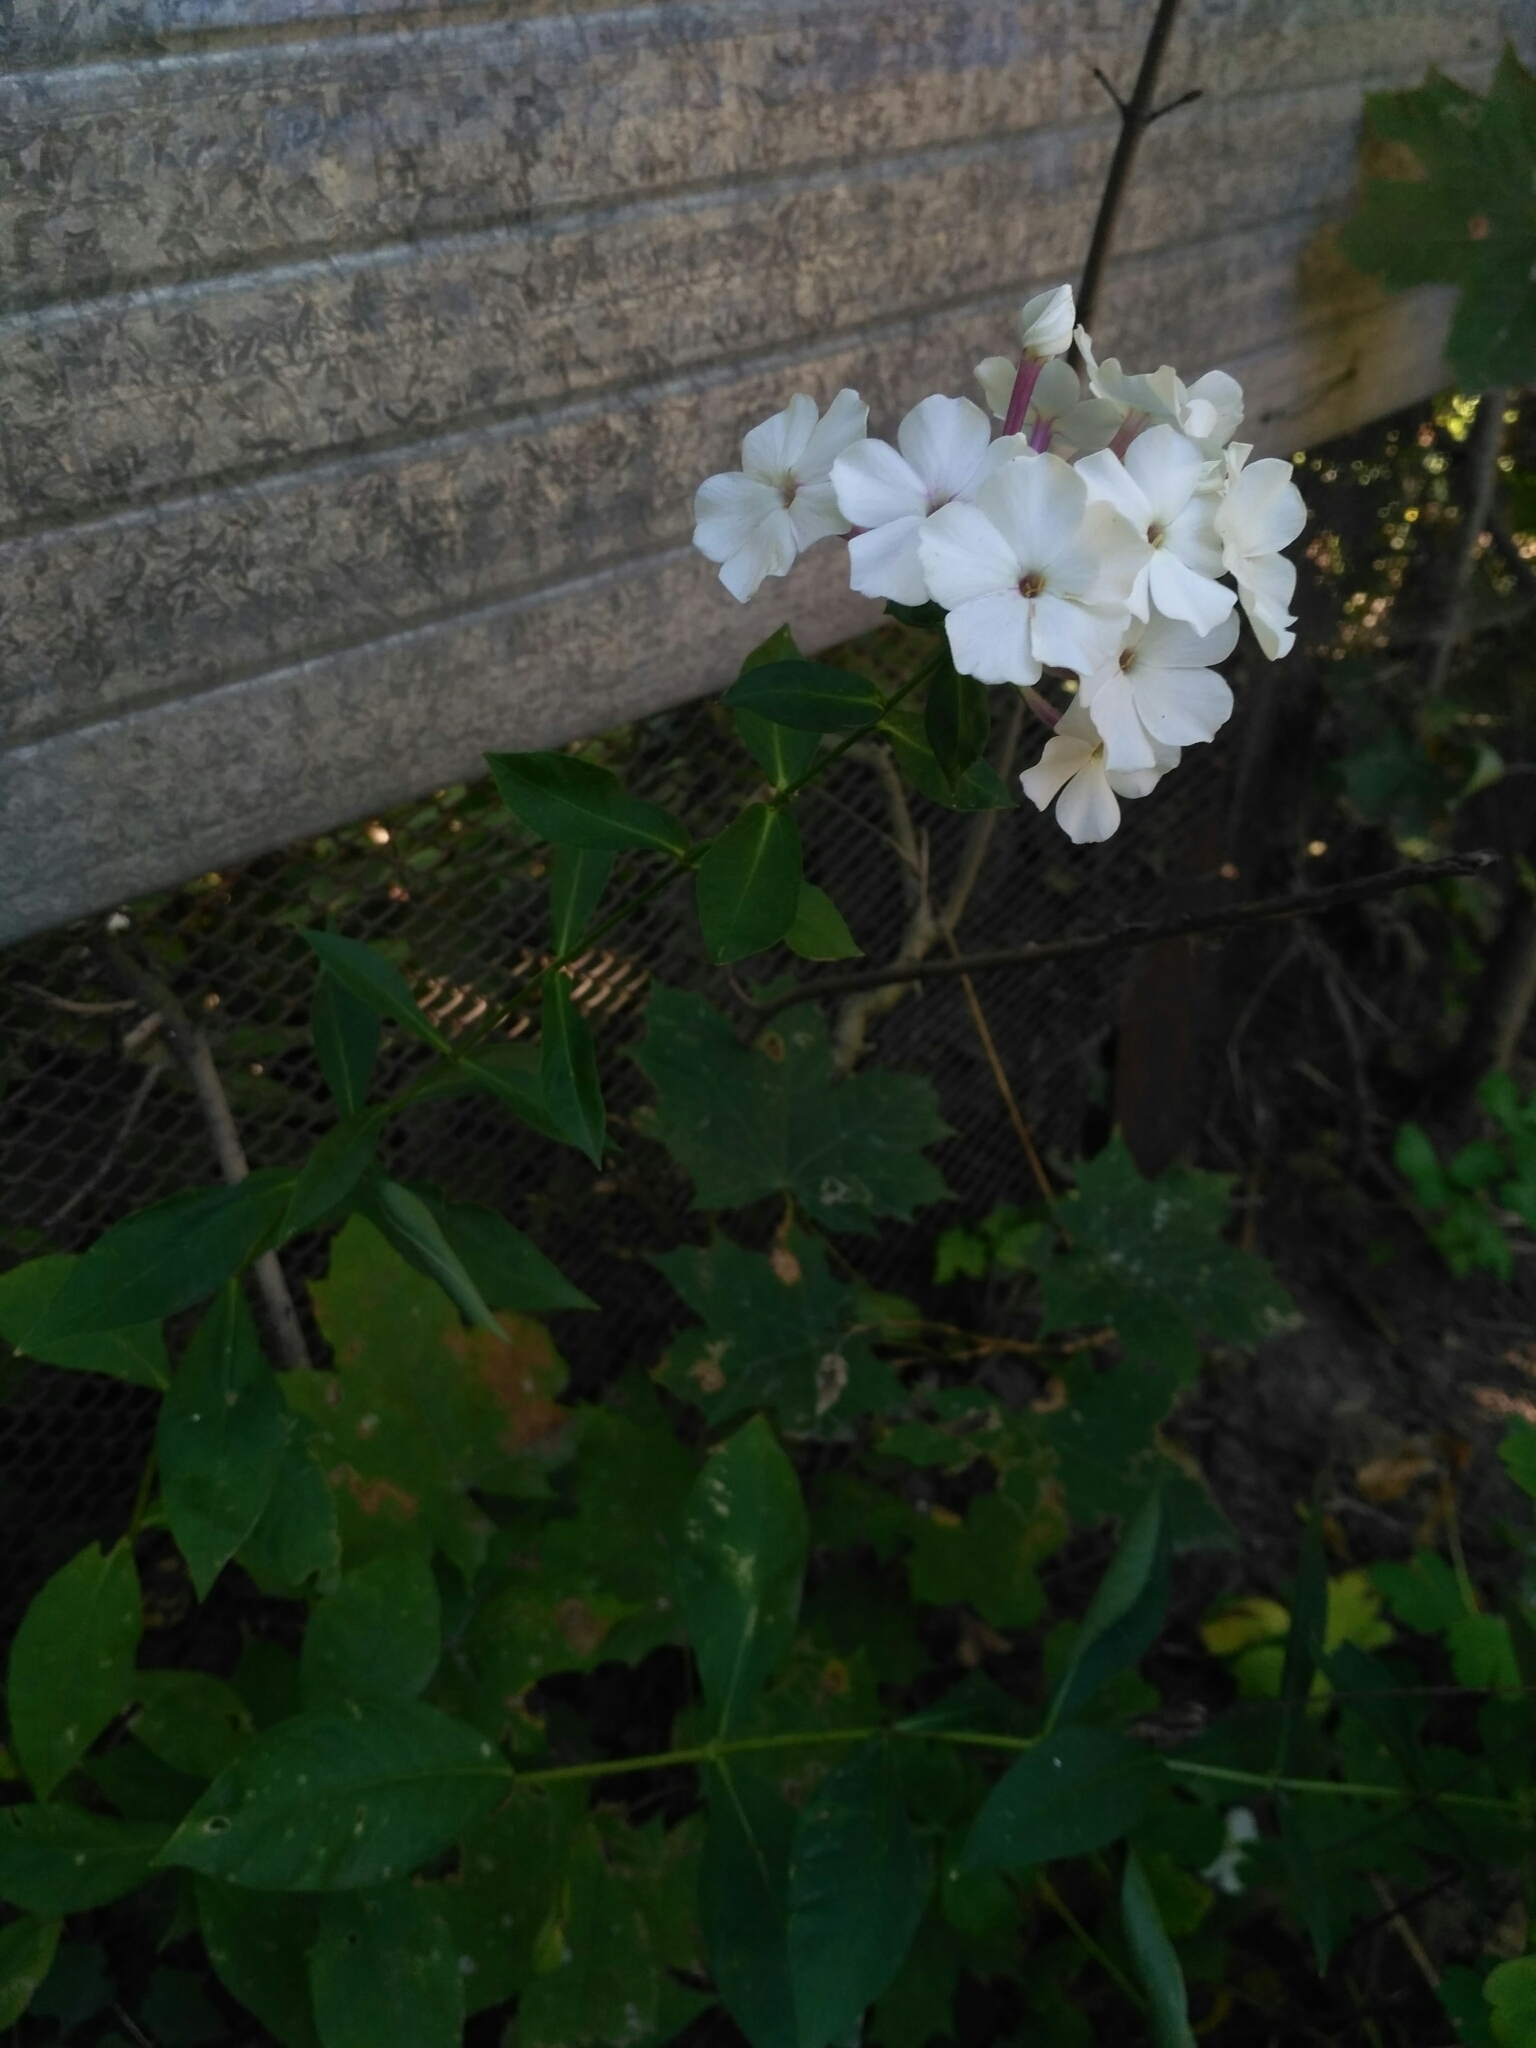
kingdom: Plantae
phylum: Tracheophyta
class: Magnoliopsida
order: Ericales
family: Polemoniaceae
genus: Phlox
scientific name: Phlox paniculata
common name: Fall phlox
